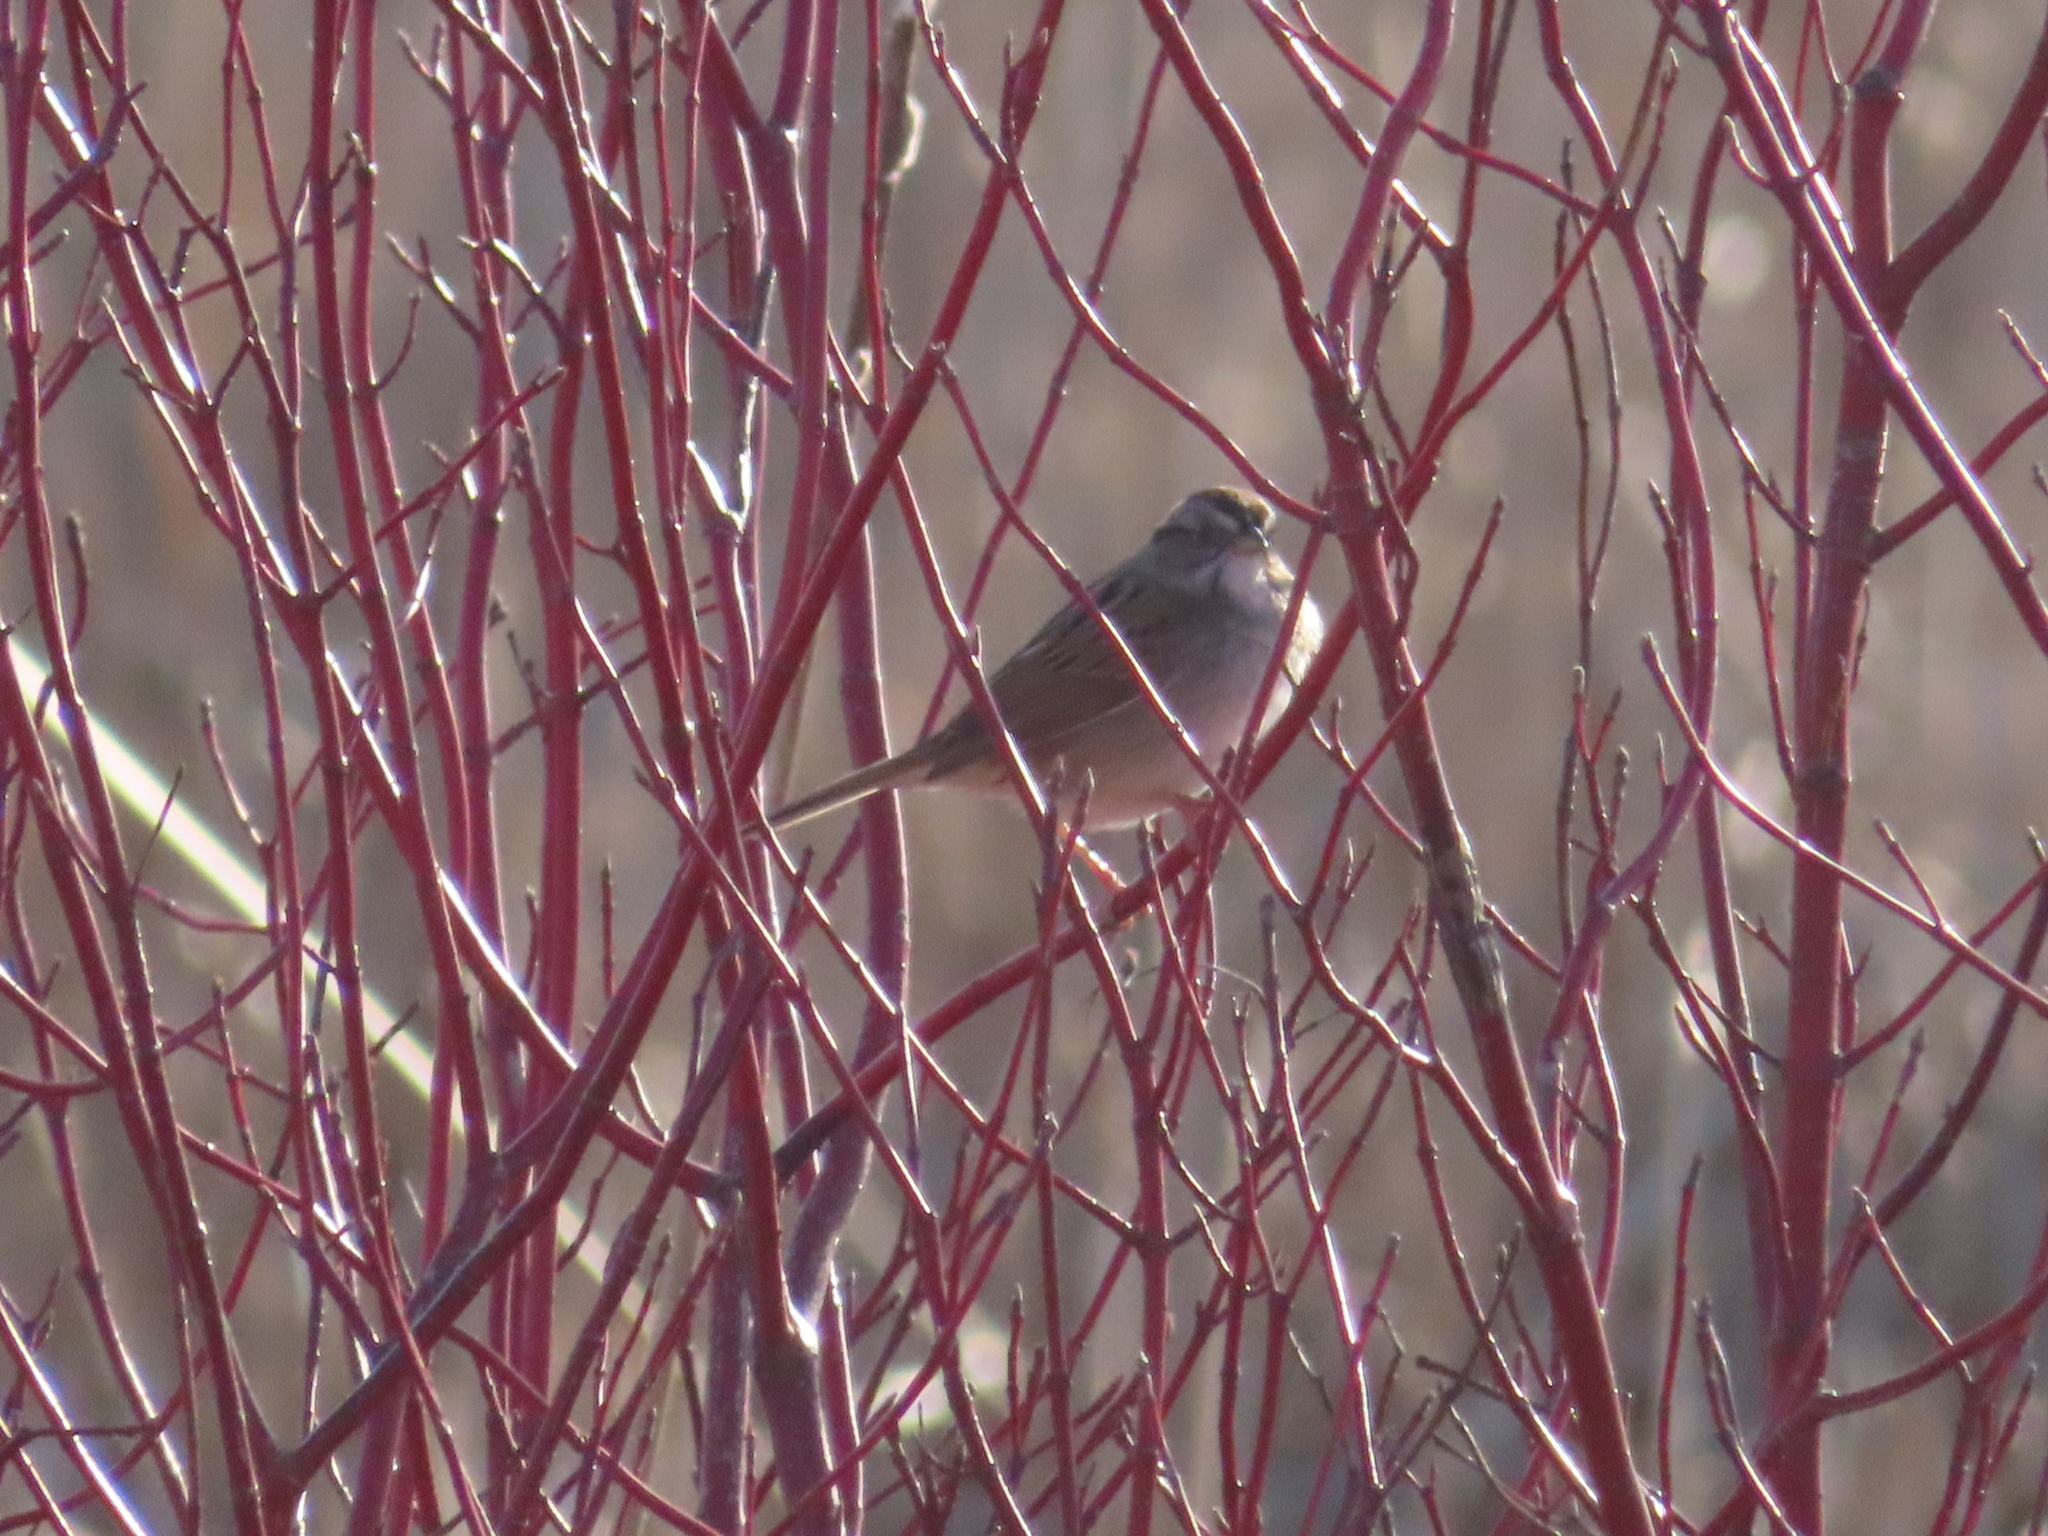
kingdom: Animalia
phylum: Chordata
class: Aves
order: Passeriformes
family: Passerellidae
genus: Melospiza
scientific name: Melospiza georgiana
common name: Swamp sparrow
